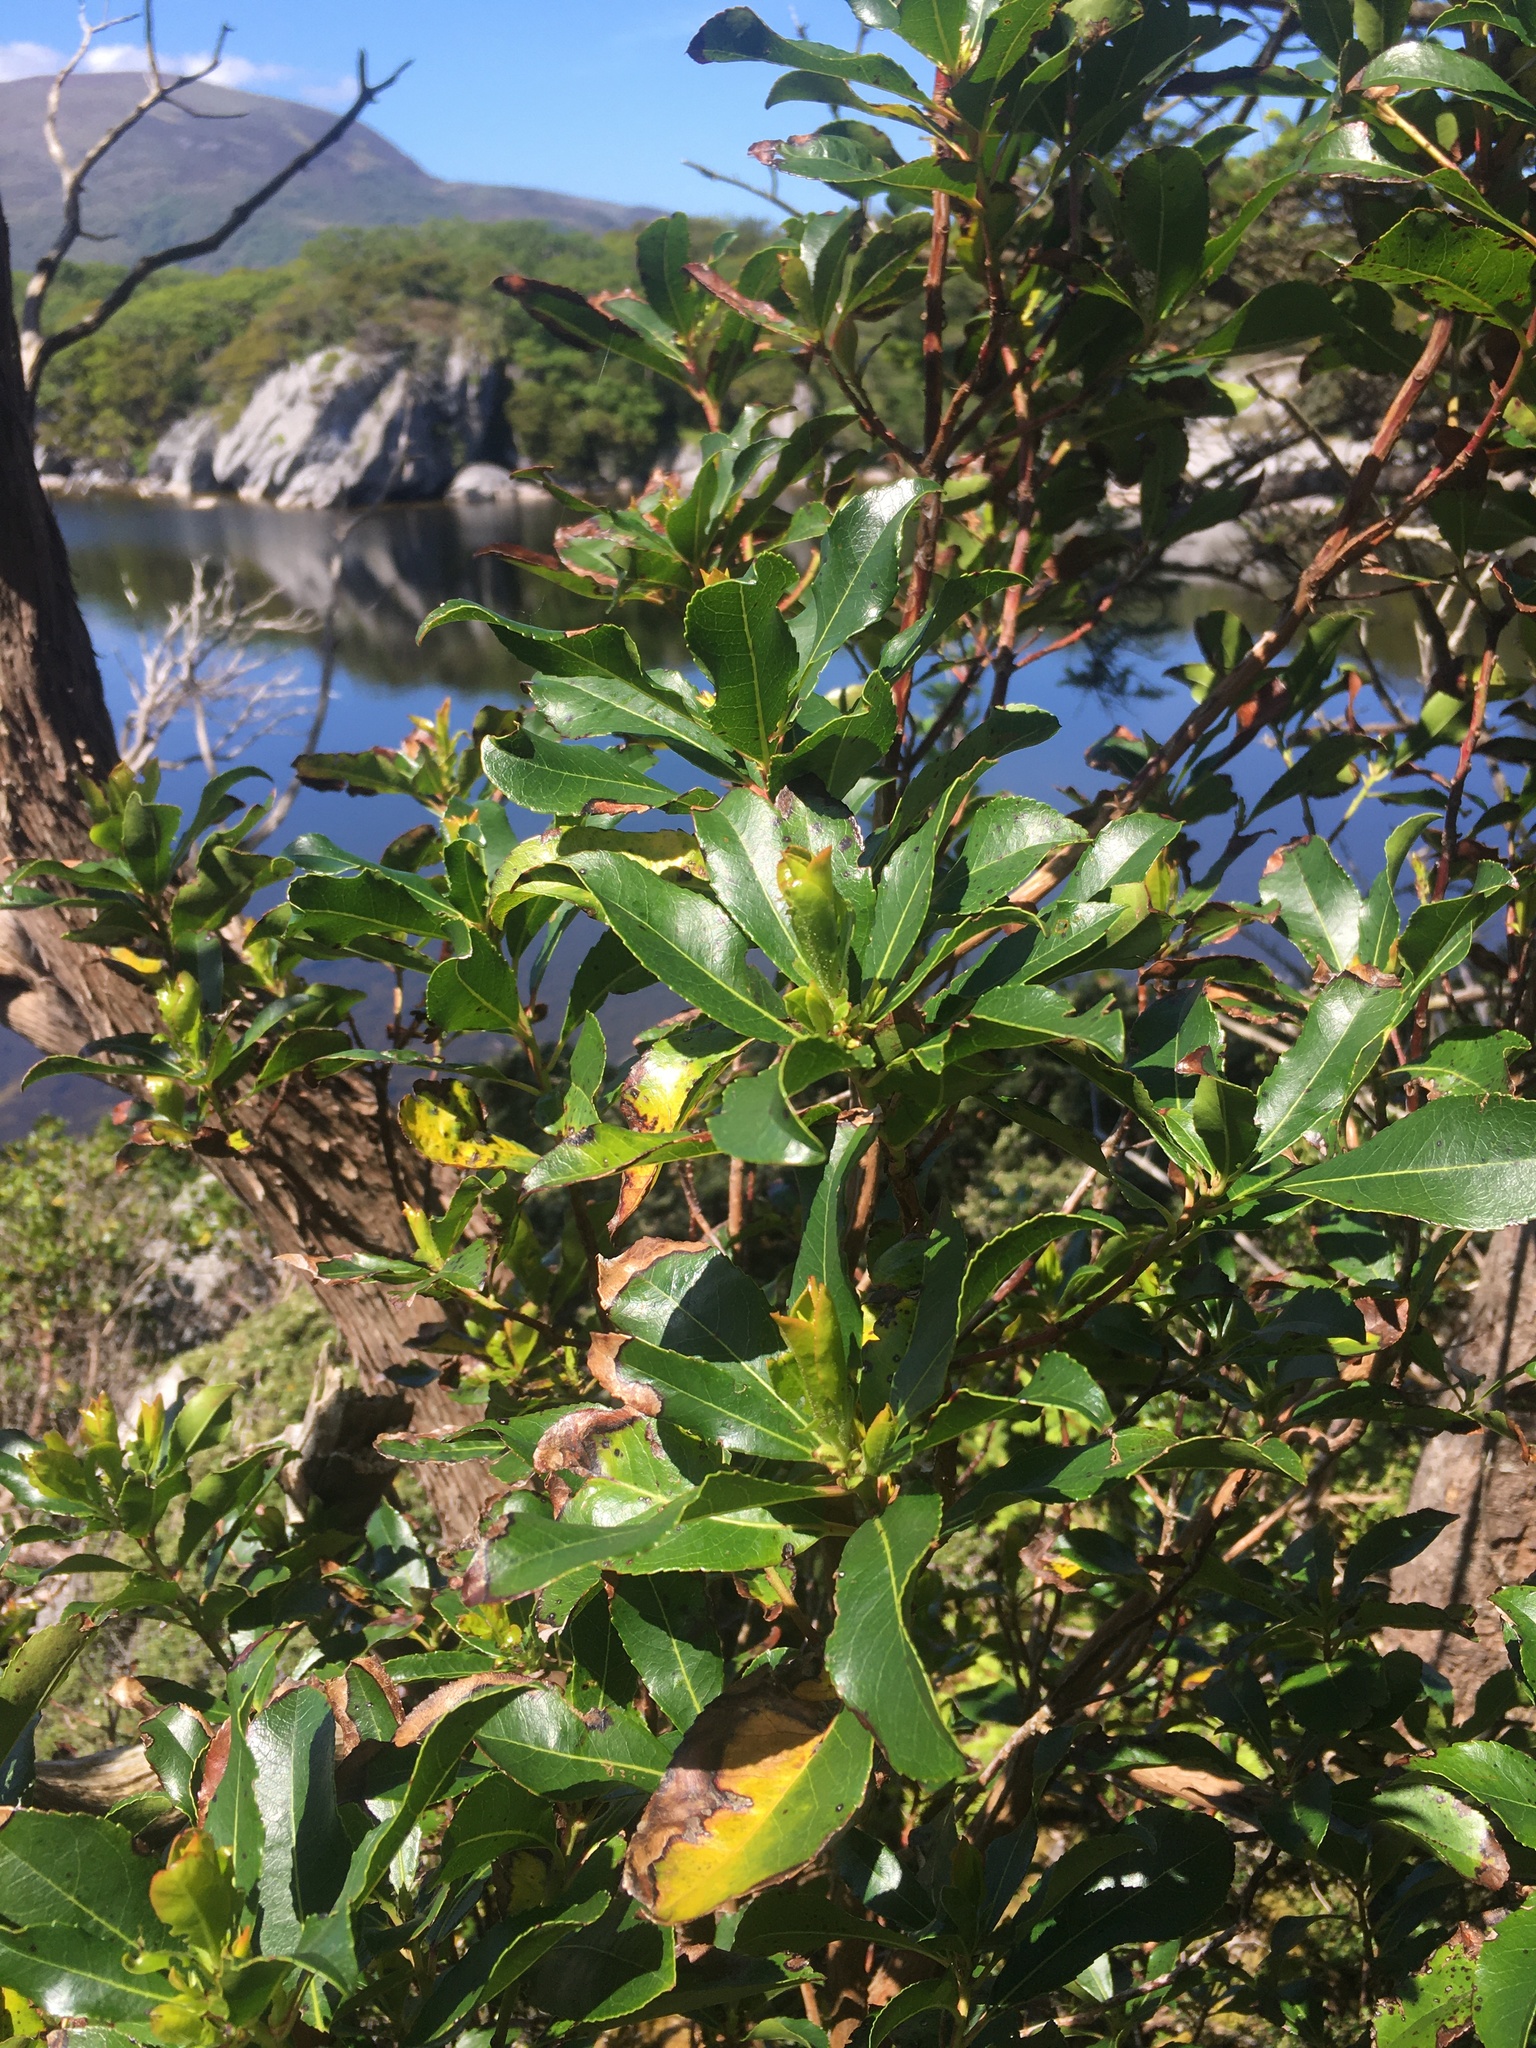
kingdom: Plantae
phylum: Tracheophyta
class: Magnoliopsida
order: Ericales
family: Ericaceae
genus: Arbutus
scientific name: Arbutus unedo
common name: Strawberry-tree
